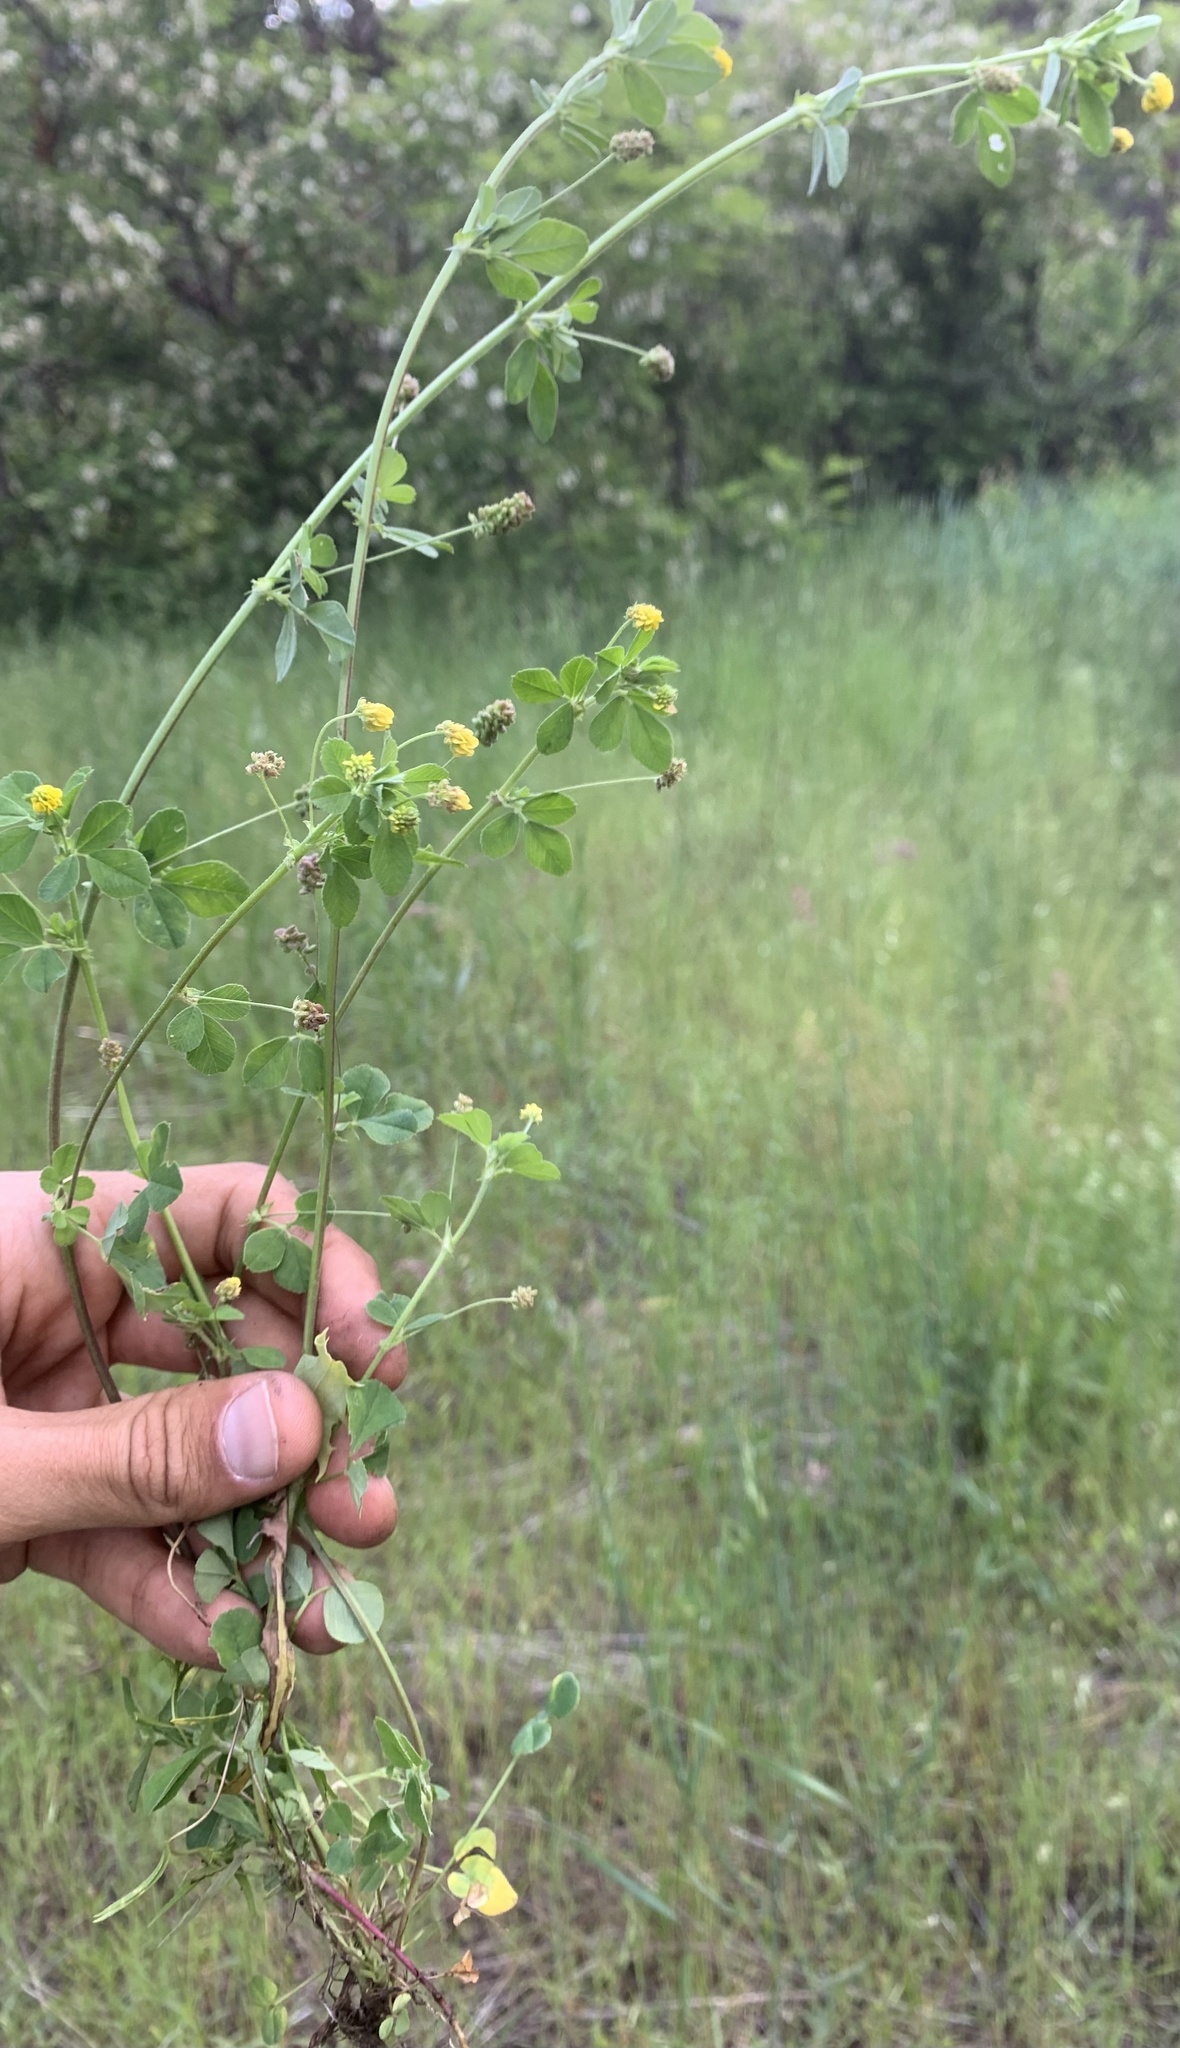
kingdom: Plantae
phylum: Tracheophyta
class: Magnoliopsida
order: Fabales
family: Fabaceae
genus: Medicago
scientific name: Medicago lupulina
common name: Black medick
